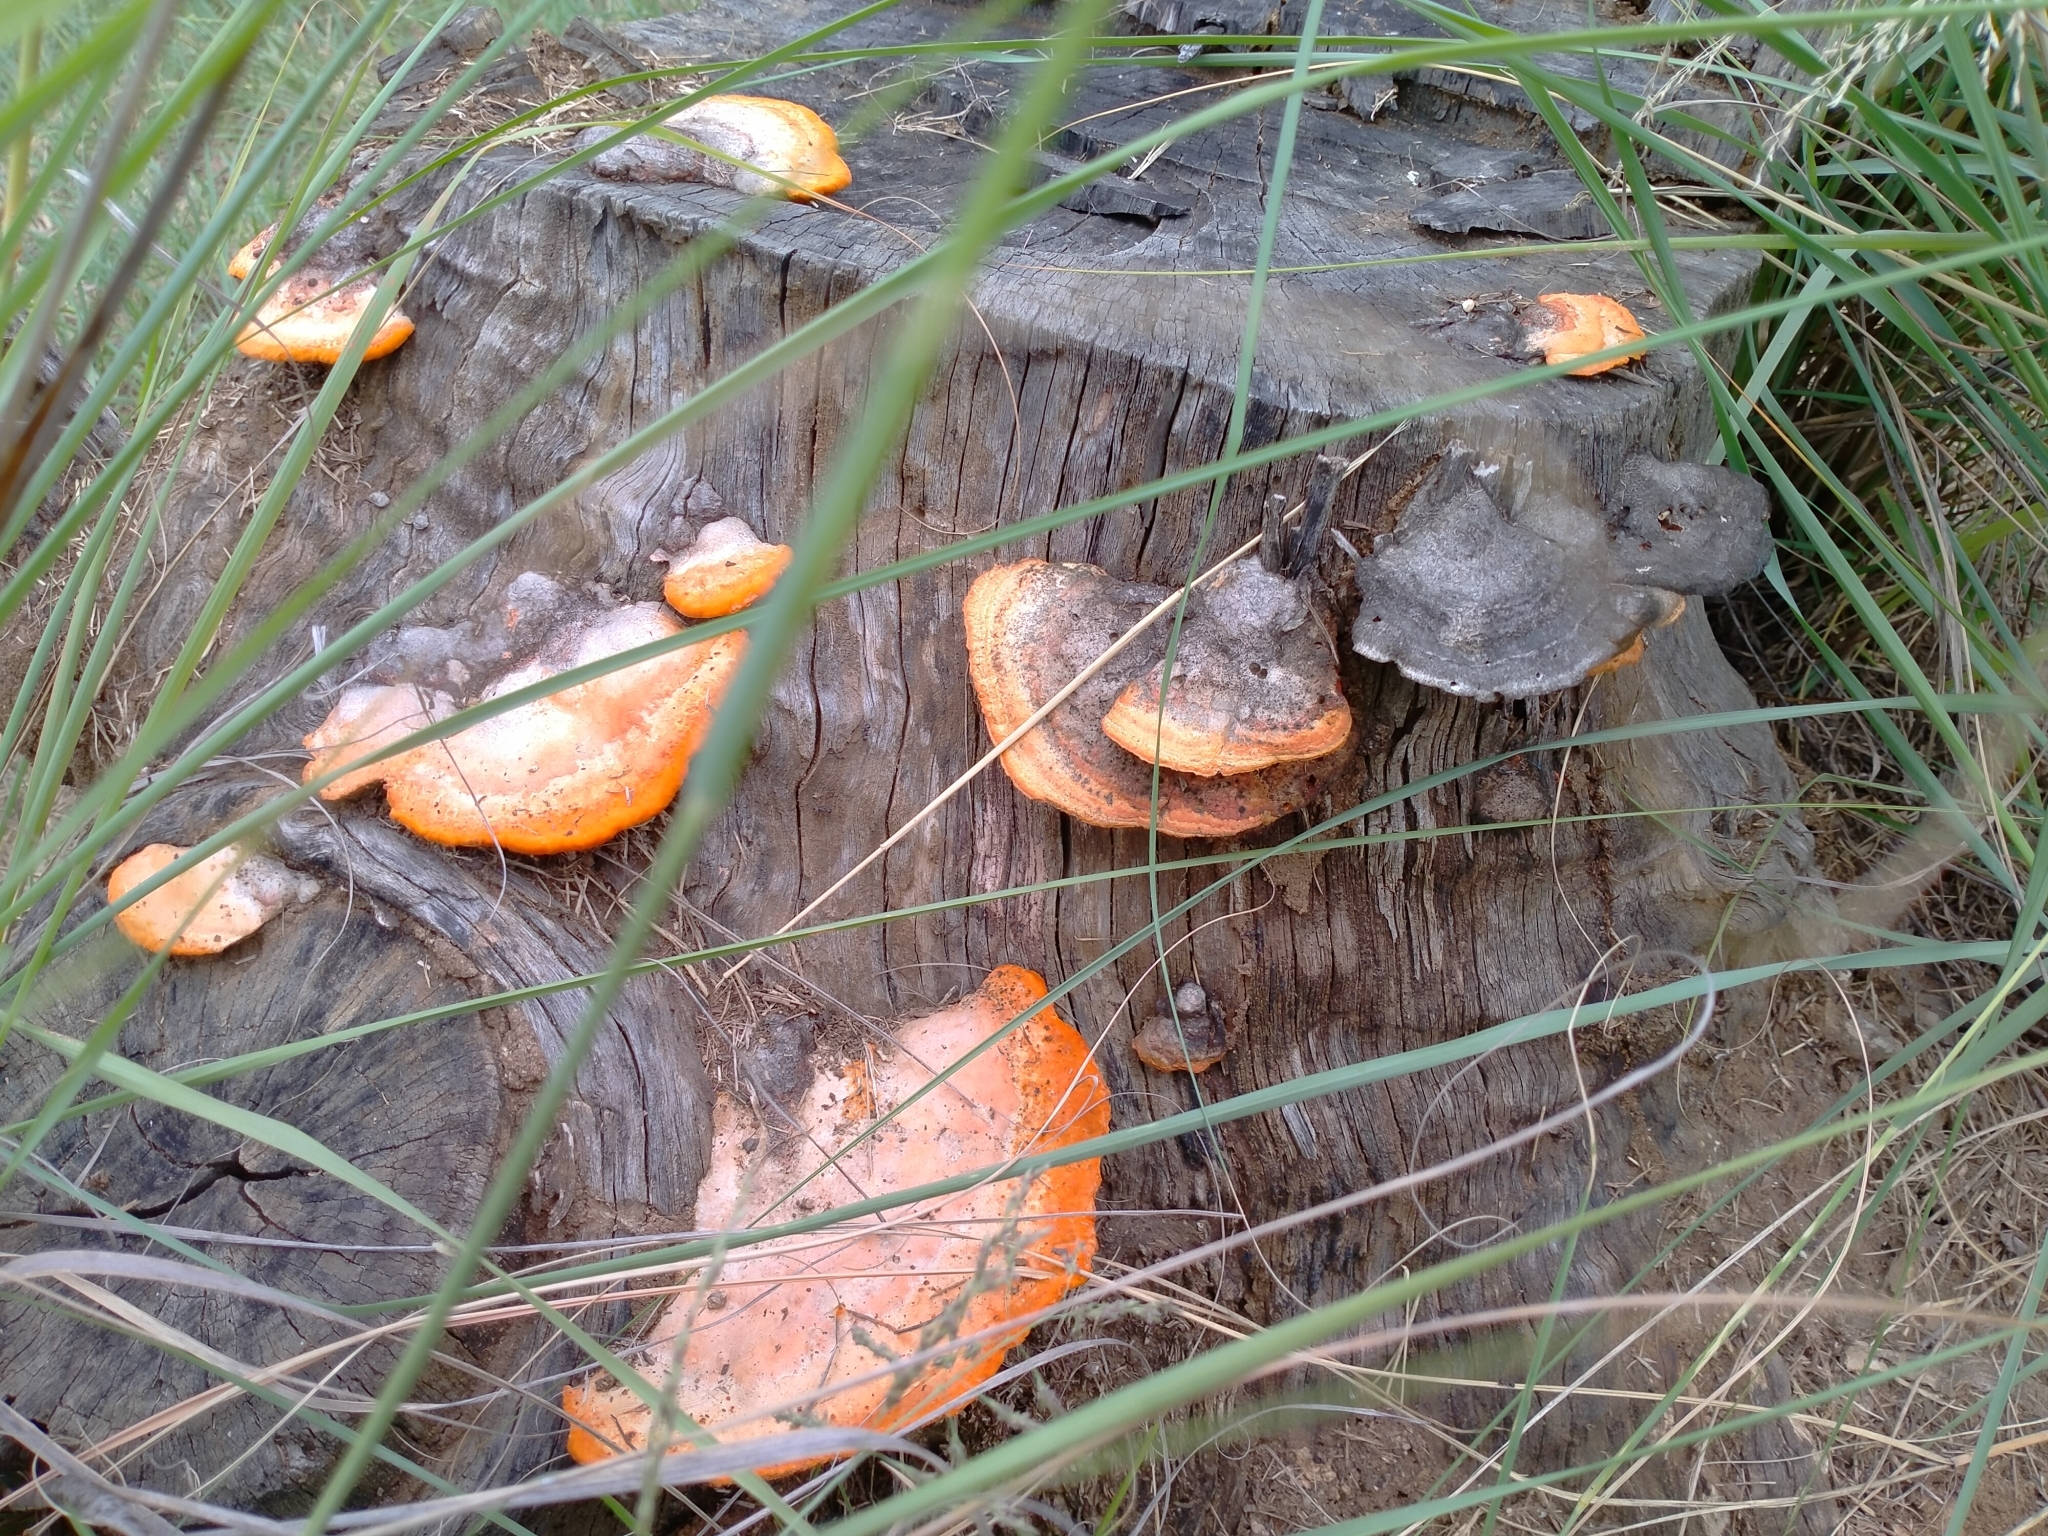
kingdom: Fungi
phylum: Basidiomycota
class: Agaricomycetes
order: Polyporales
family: Polyporaceae
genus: Trametes
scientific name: Trametes coccinea
